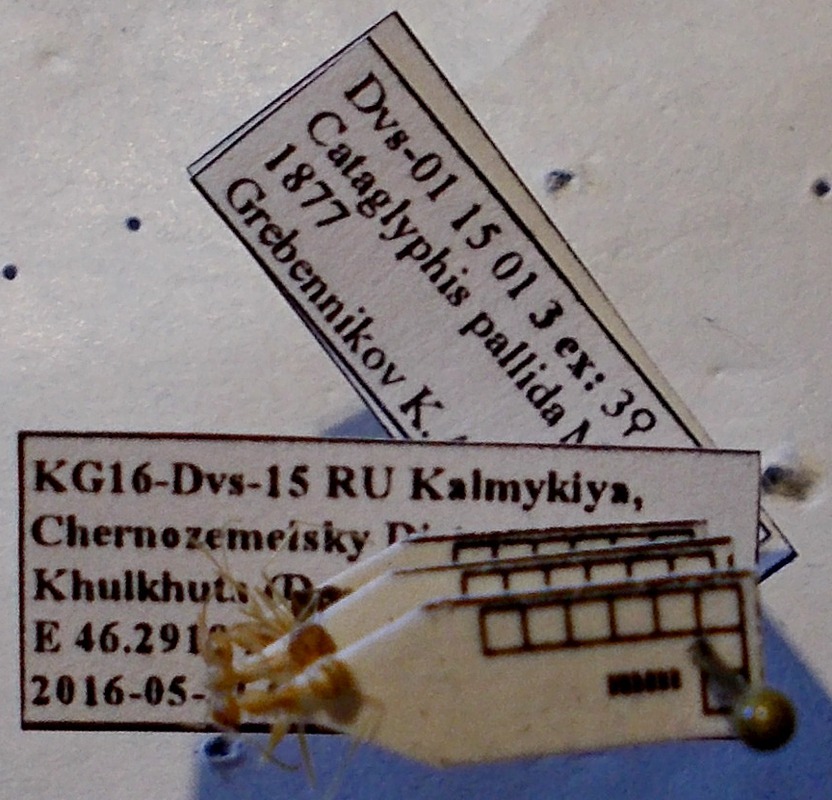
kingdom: Animalia
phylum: Arthropoda
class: Insecta
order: Hymenoptera
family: Formicidae
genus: Cataglyphis
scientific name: Cataglyphis pallidus
